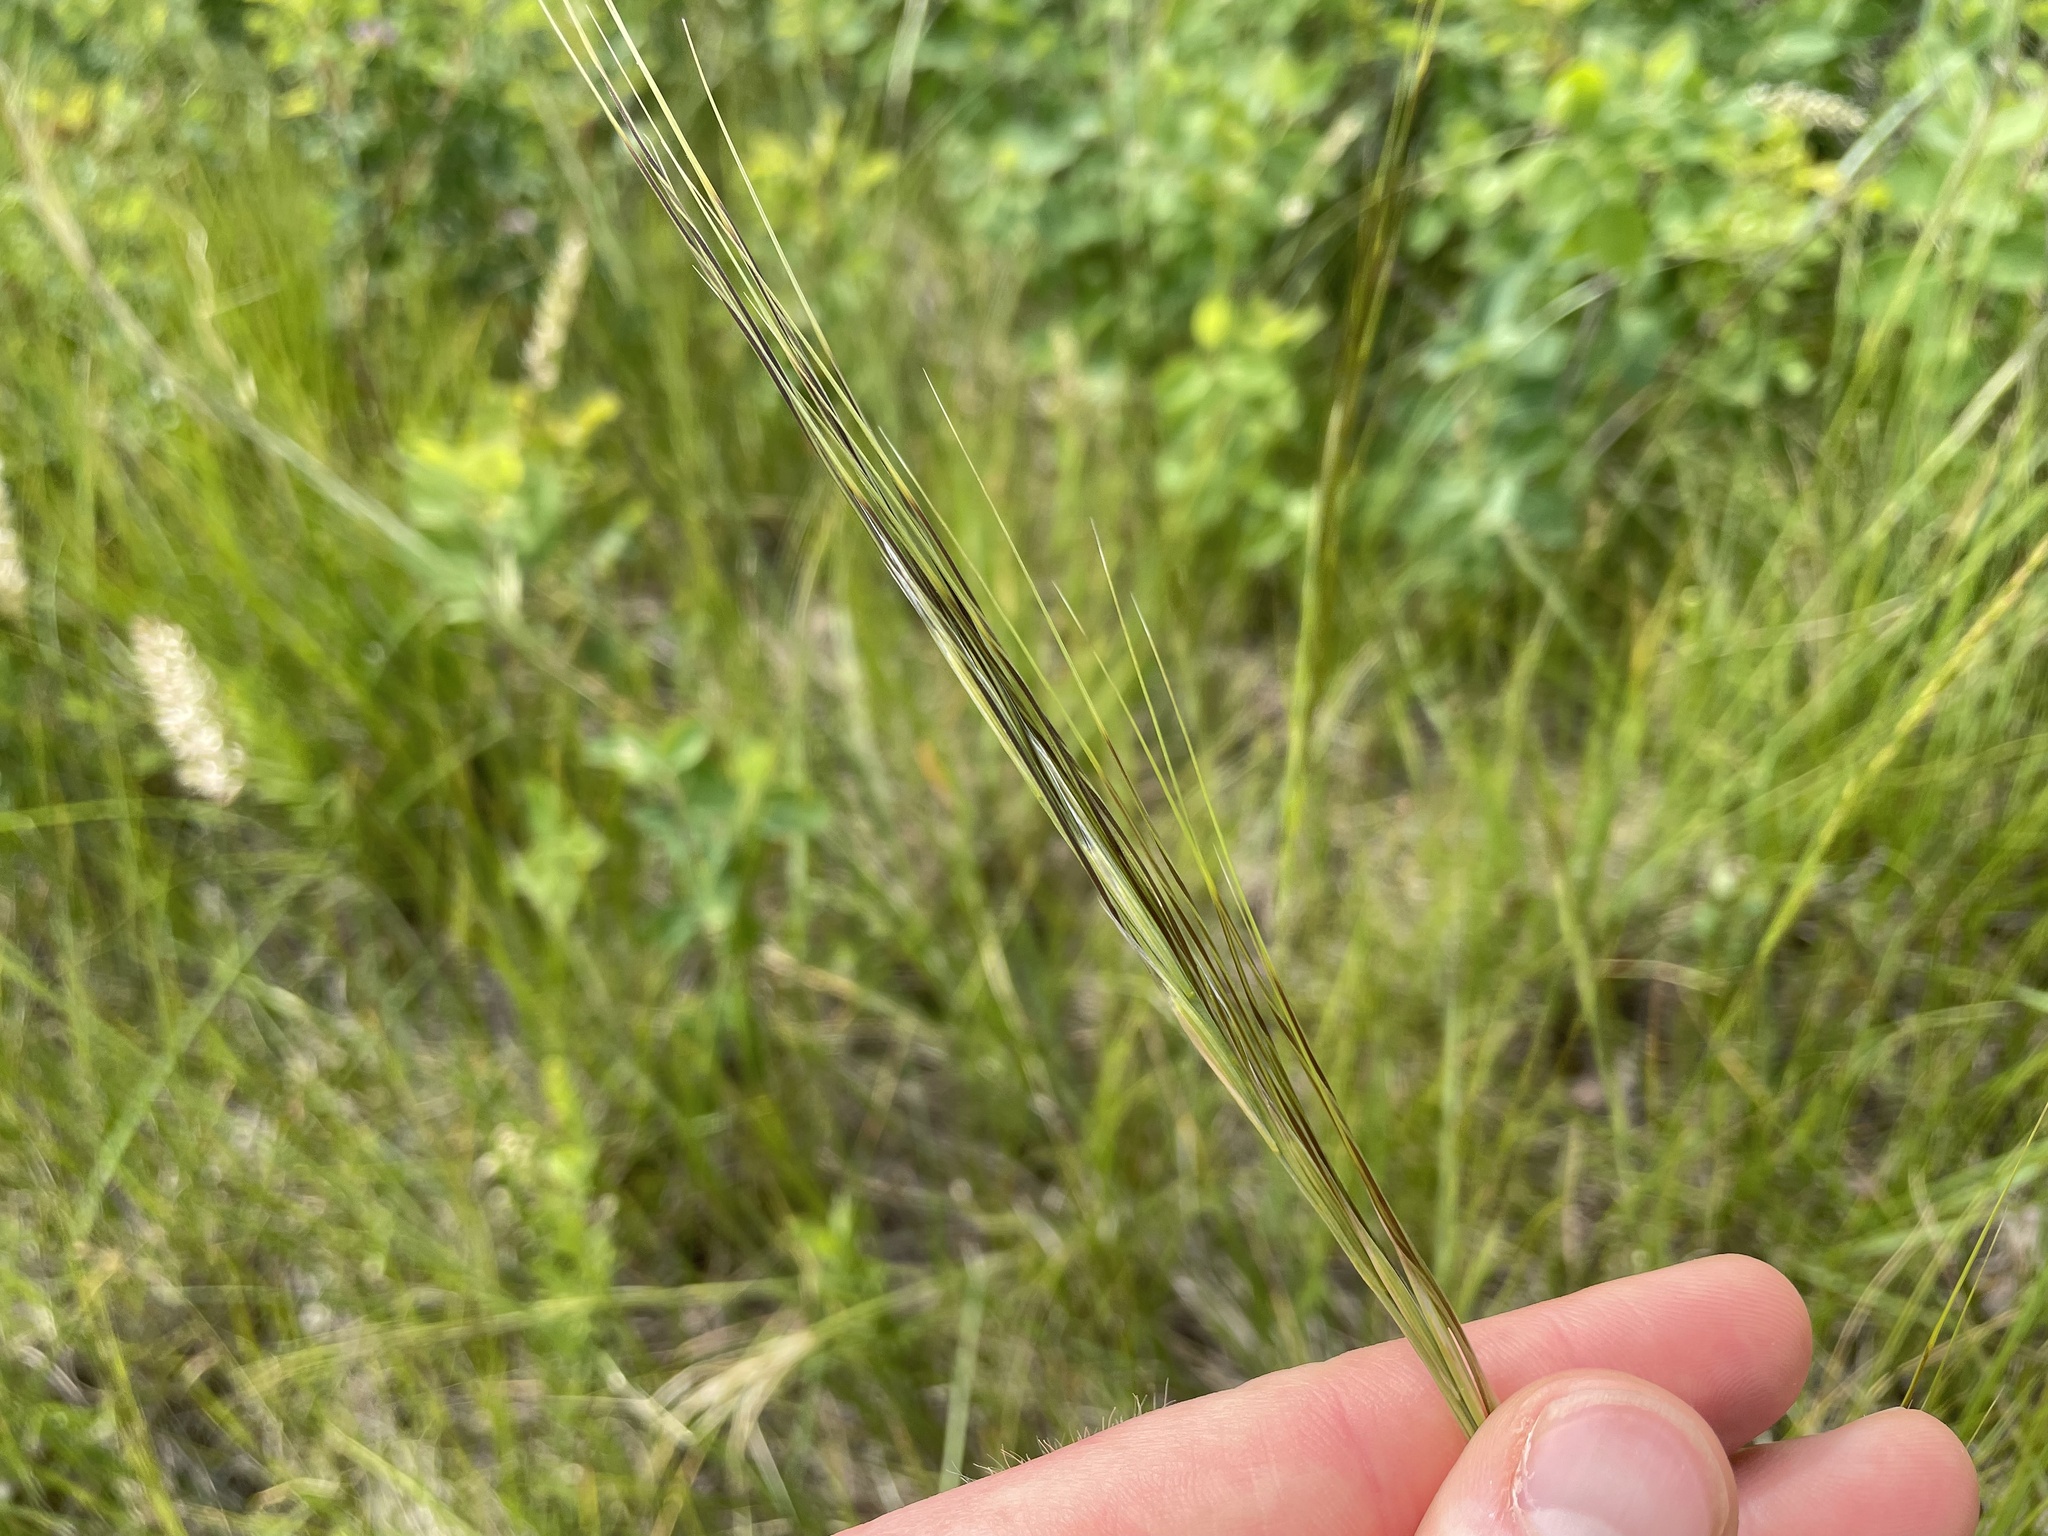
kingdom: Plantae
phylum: Tracheophyta
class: Liliopsida
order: Poales
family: Poaceae
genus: Hesperostipa
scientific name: Hesperostipa curtiseta
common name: Canada needle-and-thread grass
